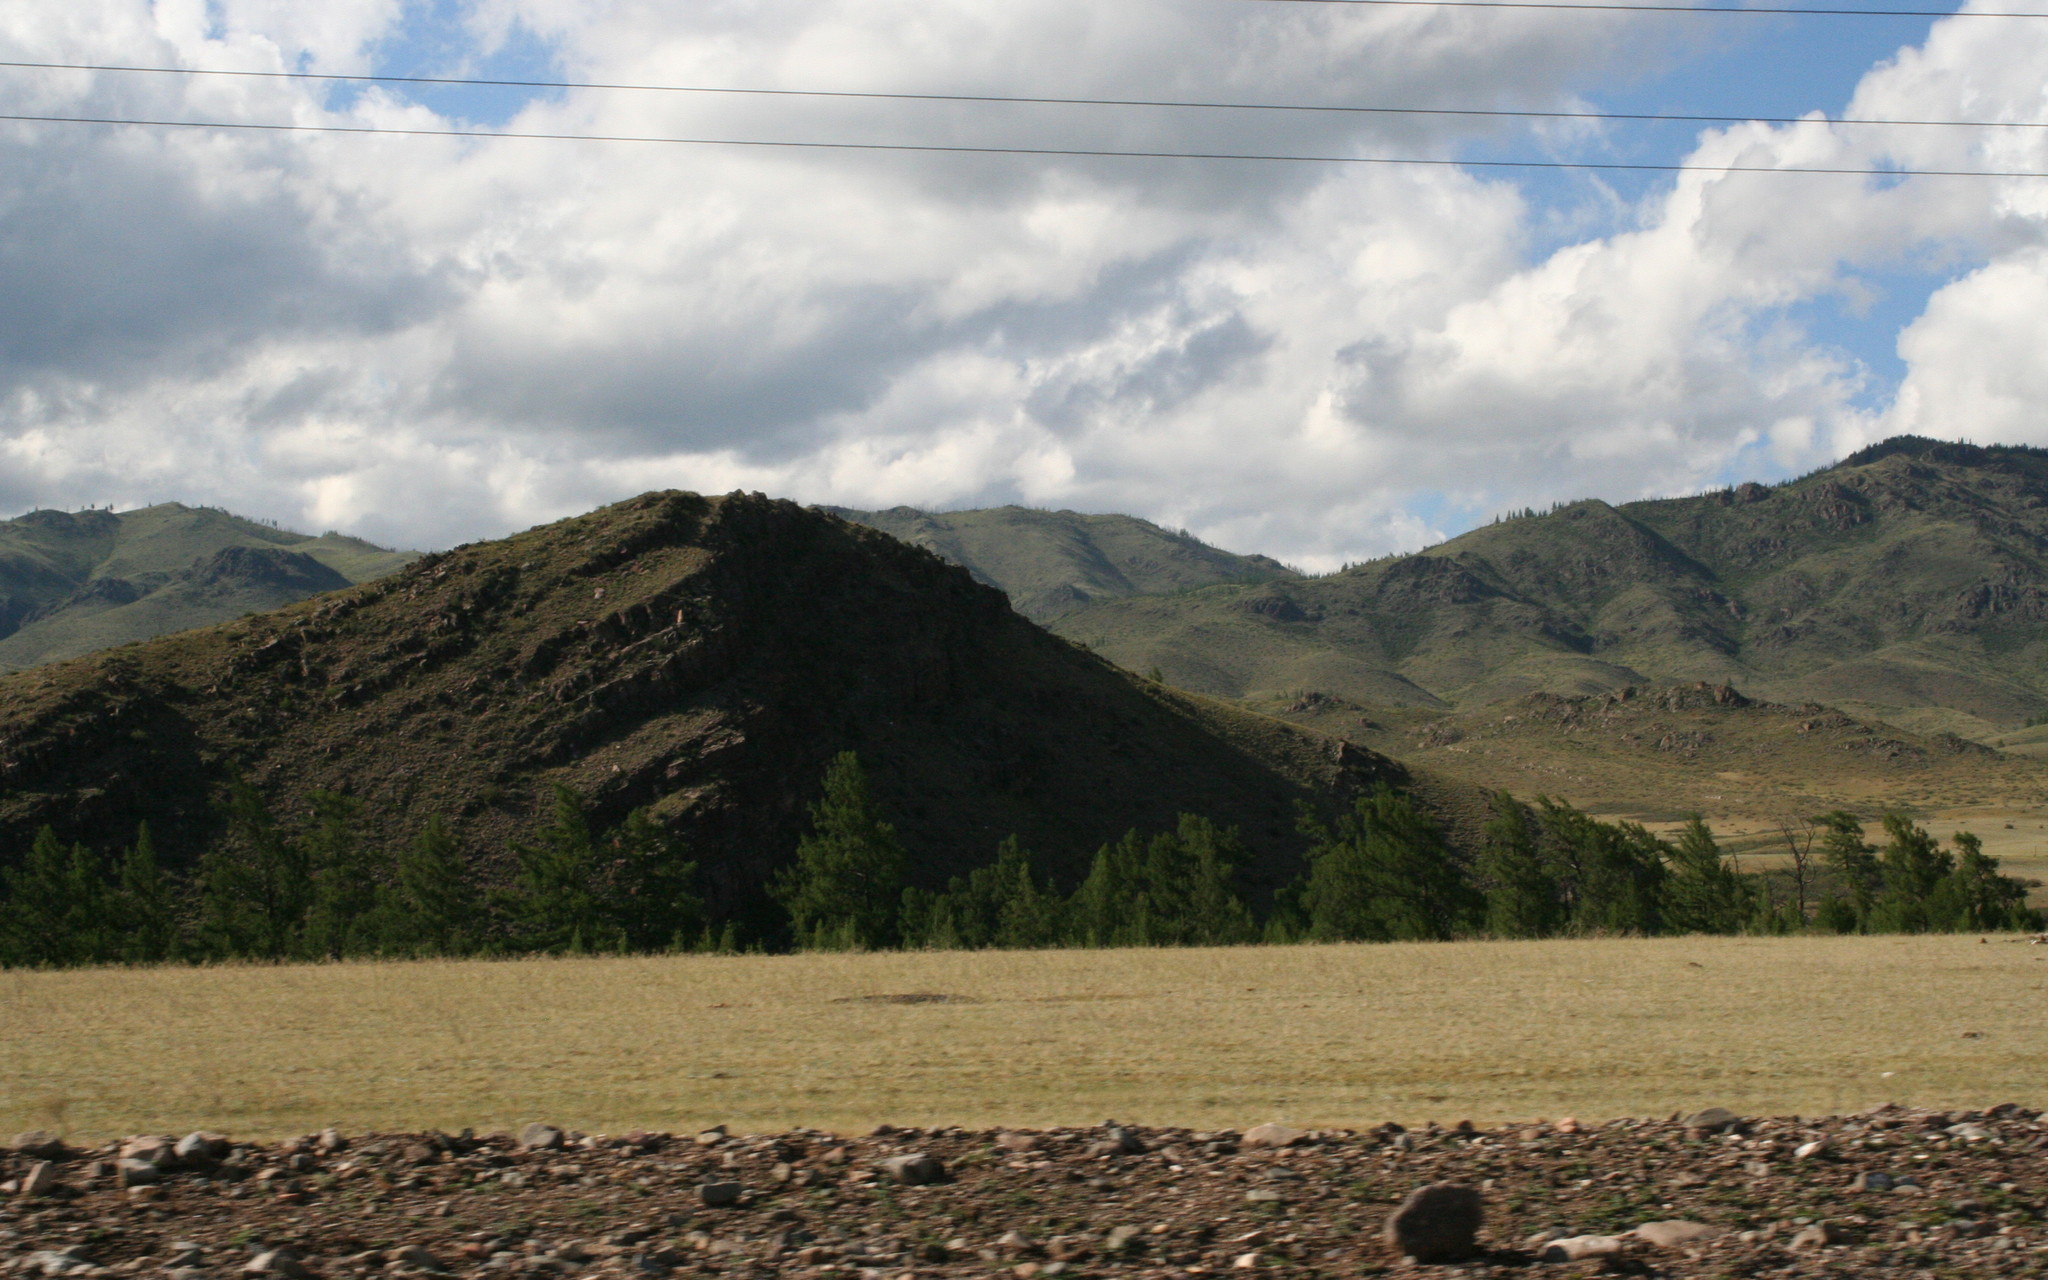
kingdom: Plantae
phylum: Tracheophyta
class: Pinopsida
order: Pinales
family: Pinaceae
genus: Larix
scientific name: Larix sibirica
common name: Siberian larch
